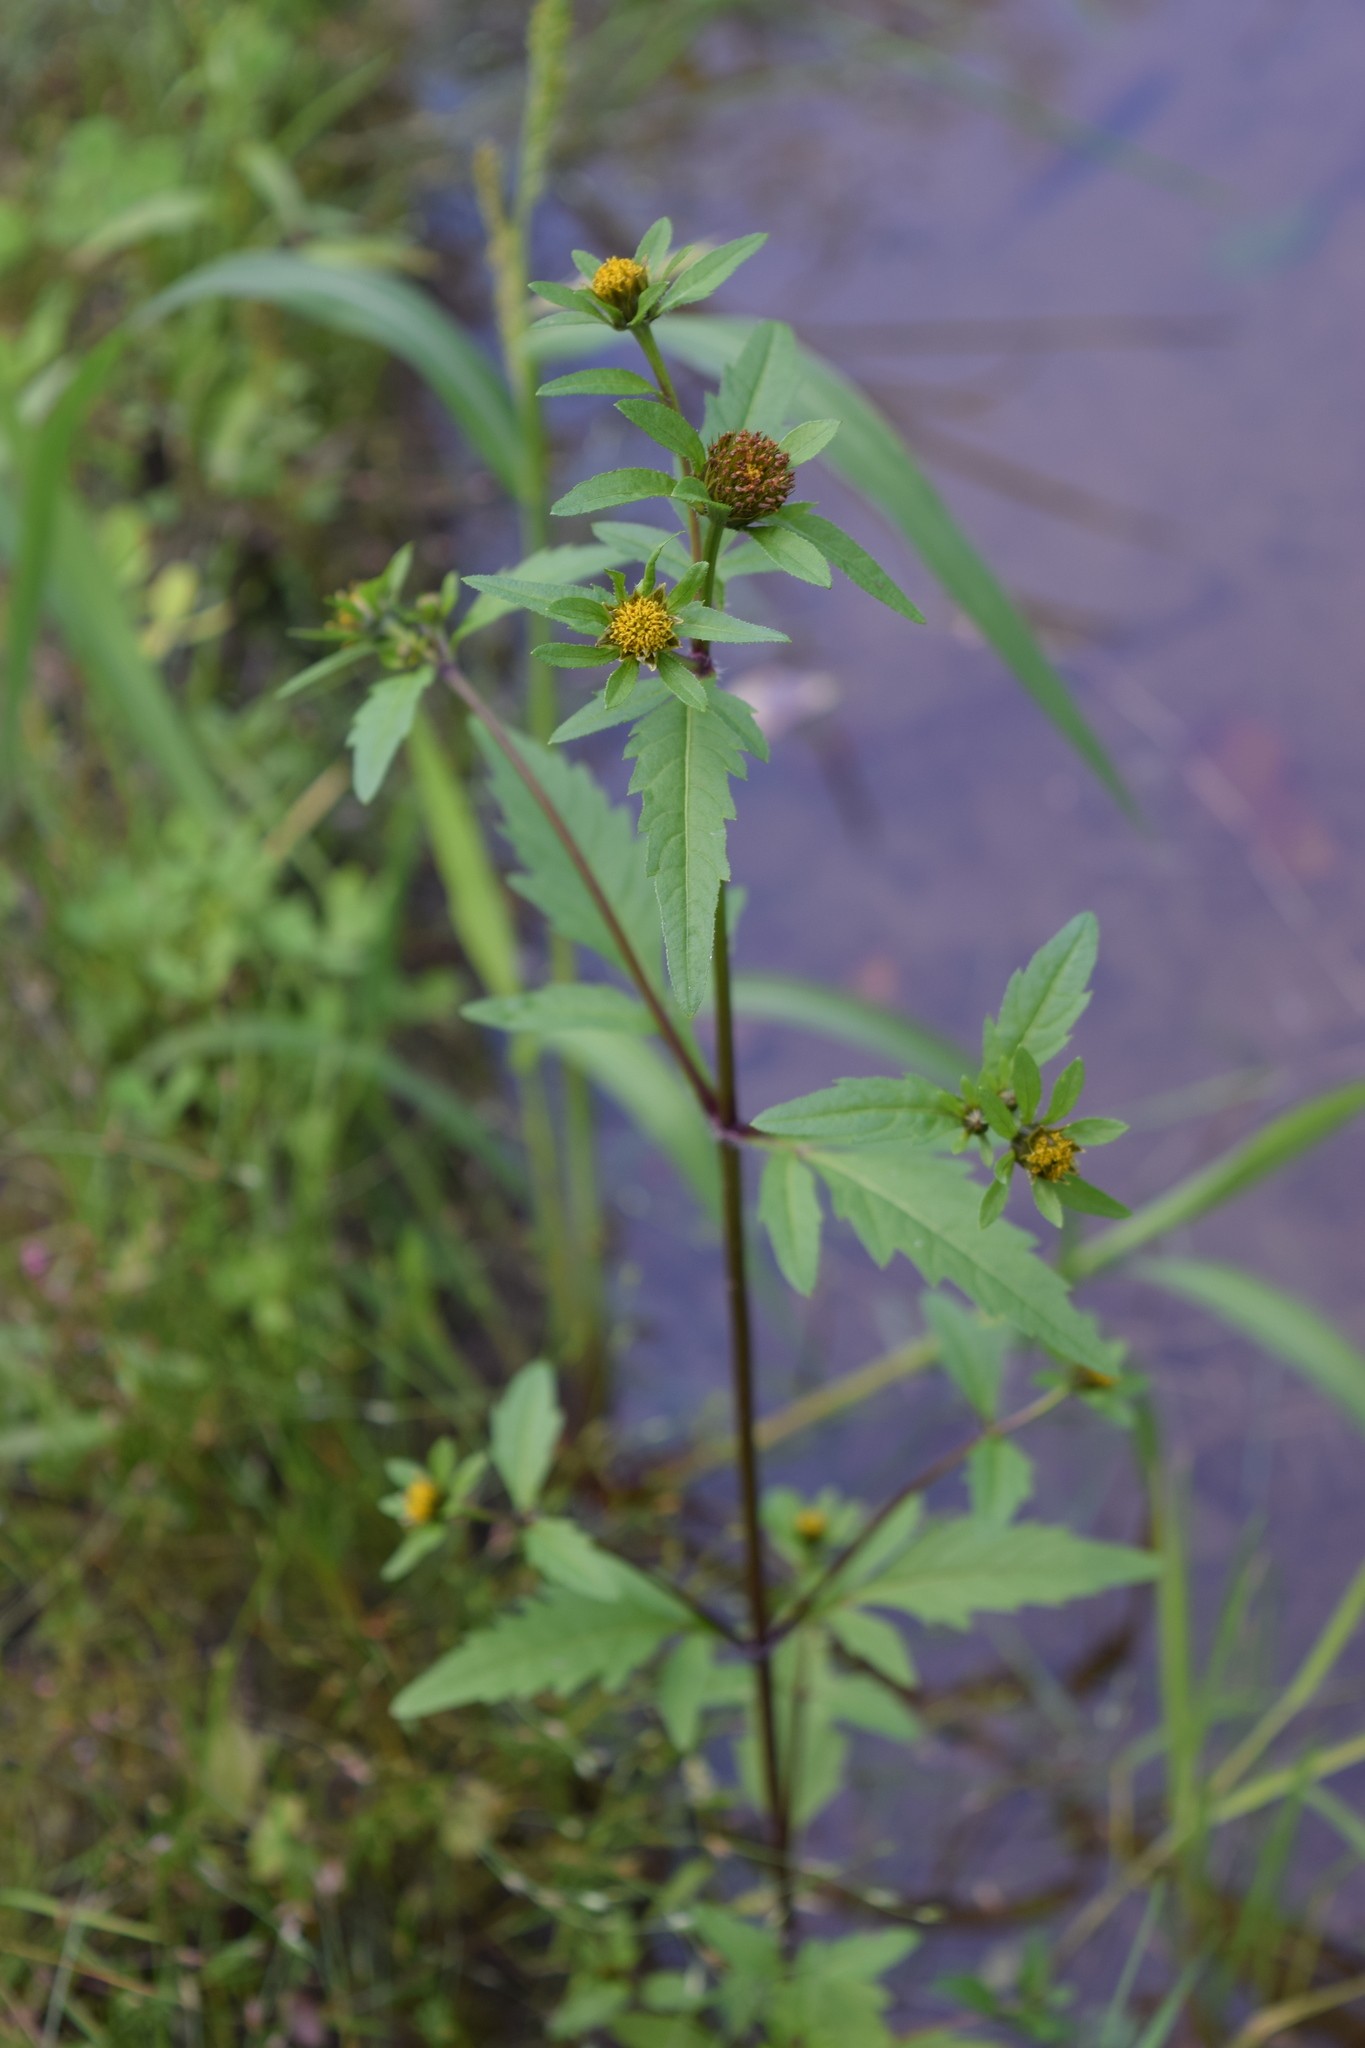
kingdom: Plantae
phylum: Tracheophyta
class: Magnoliopsida
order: Asterales
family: Asteraceae
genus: Bidens
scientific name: Bidens tripartita
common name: Trifid bur-marigold
